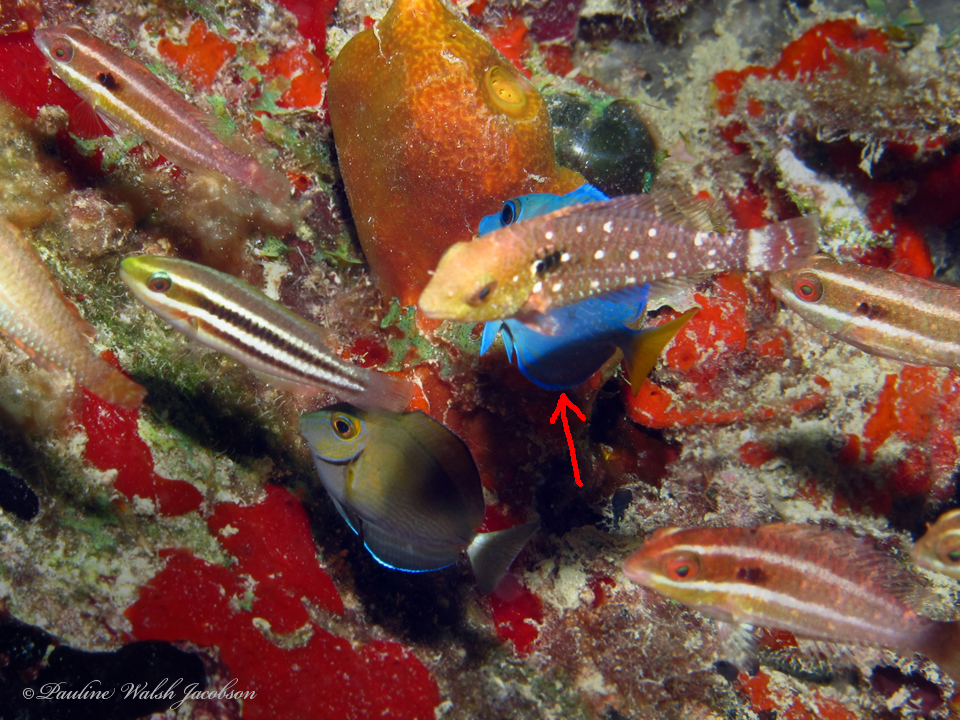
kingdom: Animalia
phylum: Chordata
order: Perciformes
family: Acanthuridae
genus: Acanthurus
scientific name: Acanthurus coeruleus
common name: Blue tang
